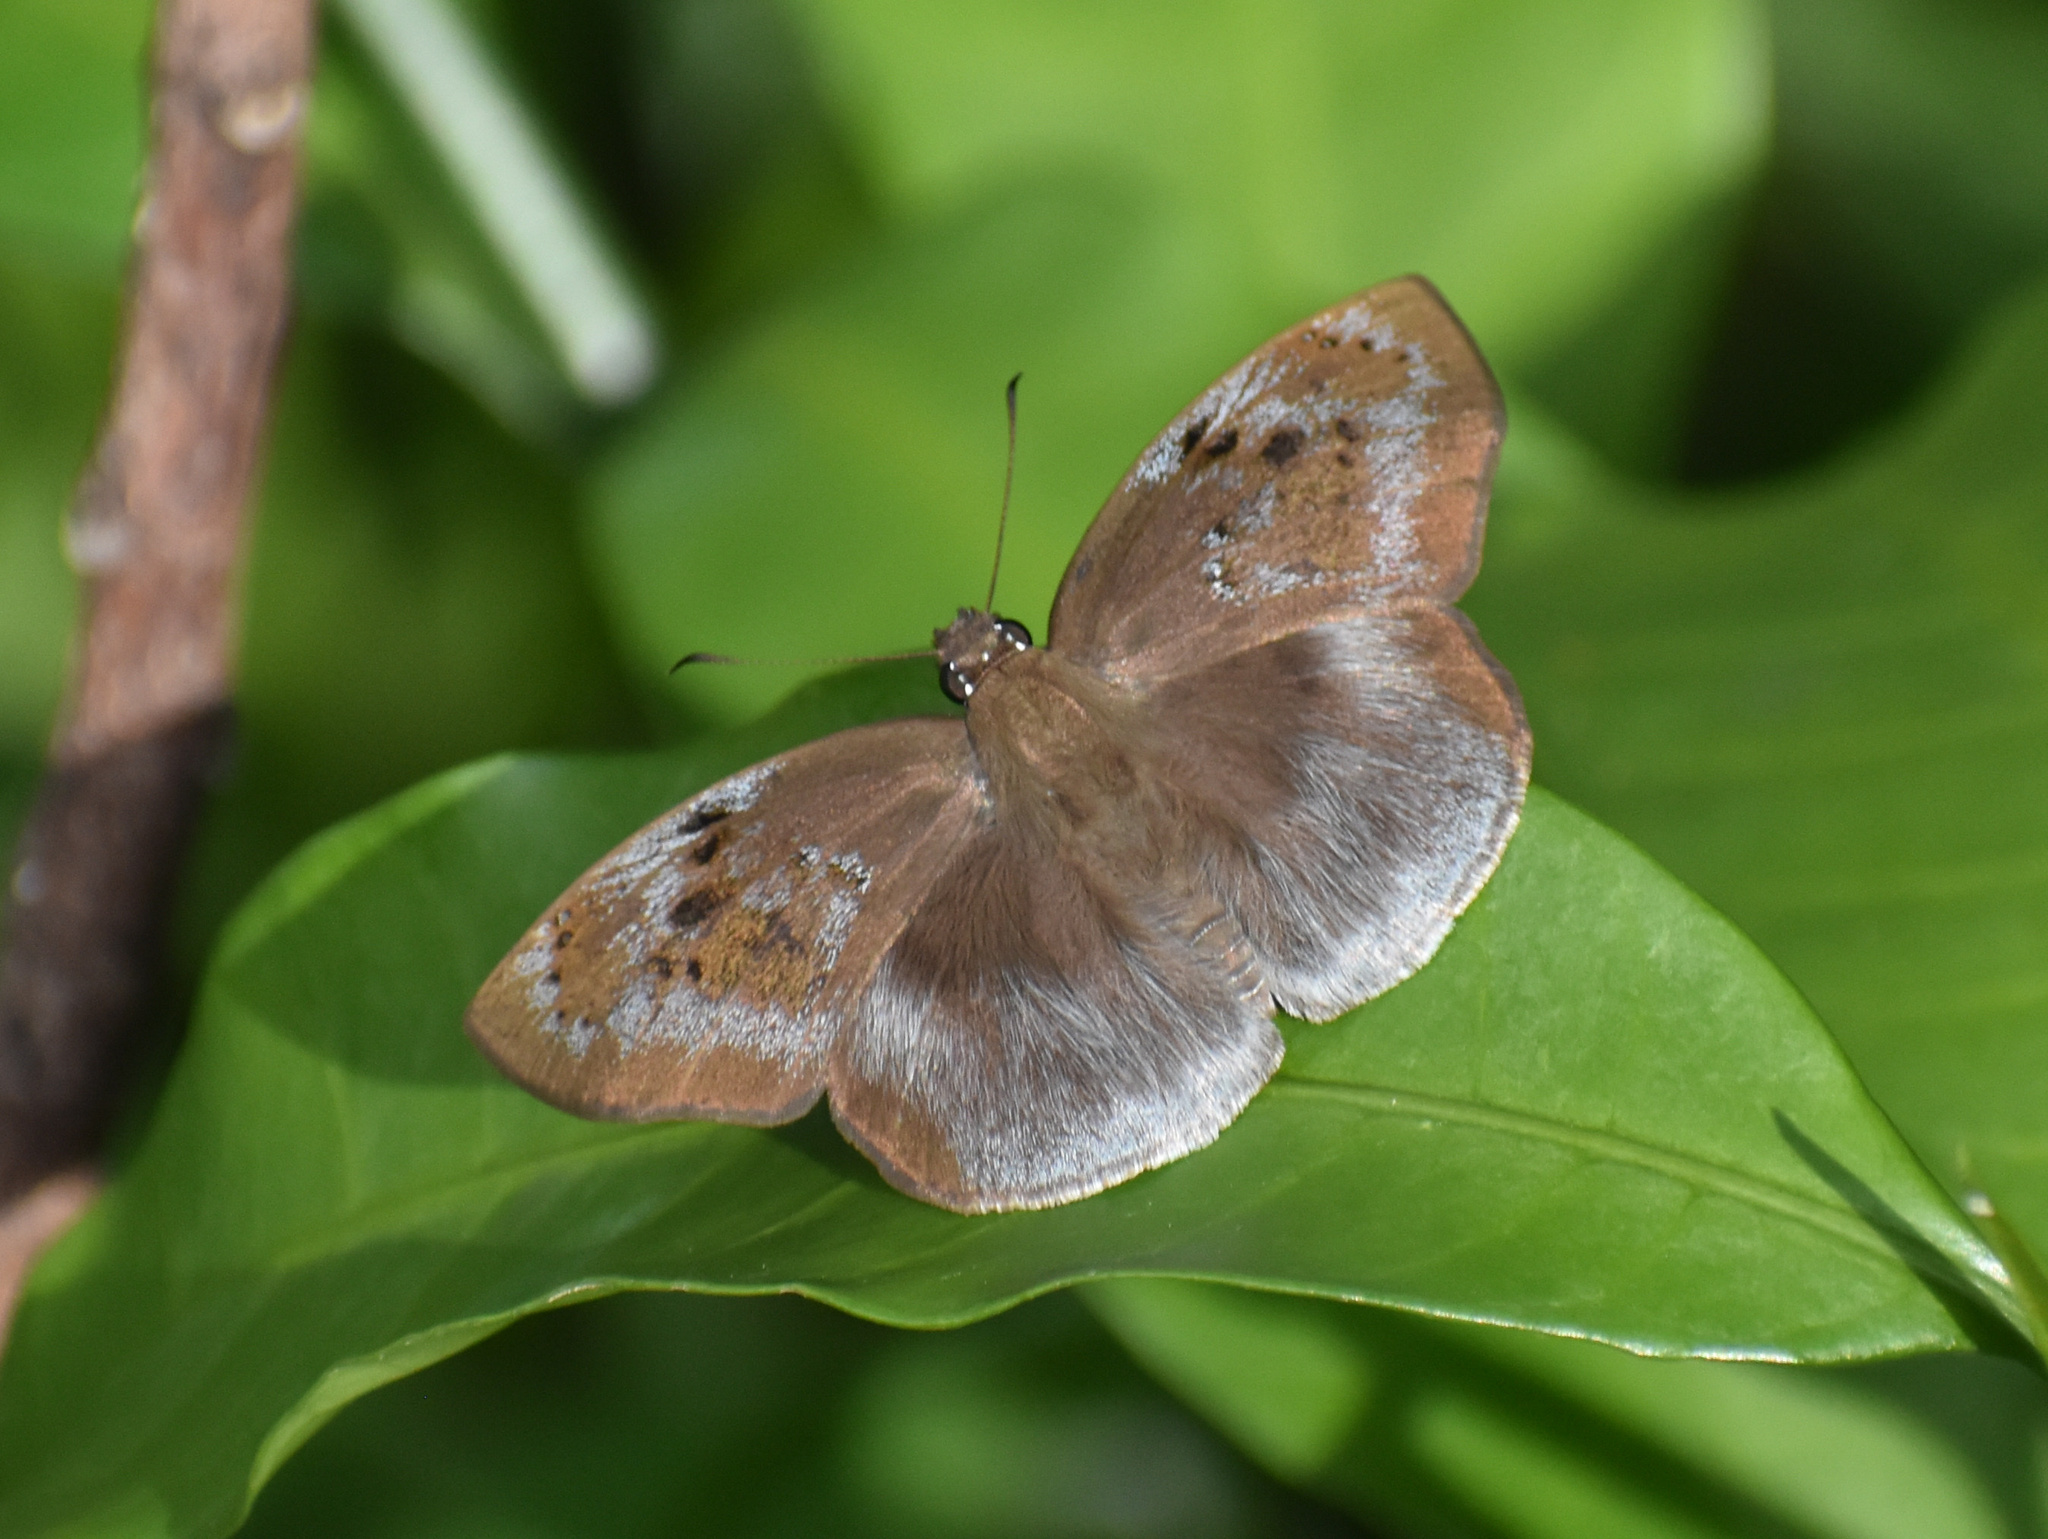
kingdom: Animalia
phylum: Arthropoda
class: Insecta
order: Lepidoptera
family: Hesperiidae
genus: Tagiades
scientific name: Tagiades flesus
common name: Clouded flat
